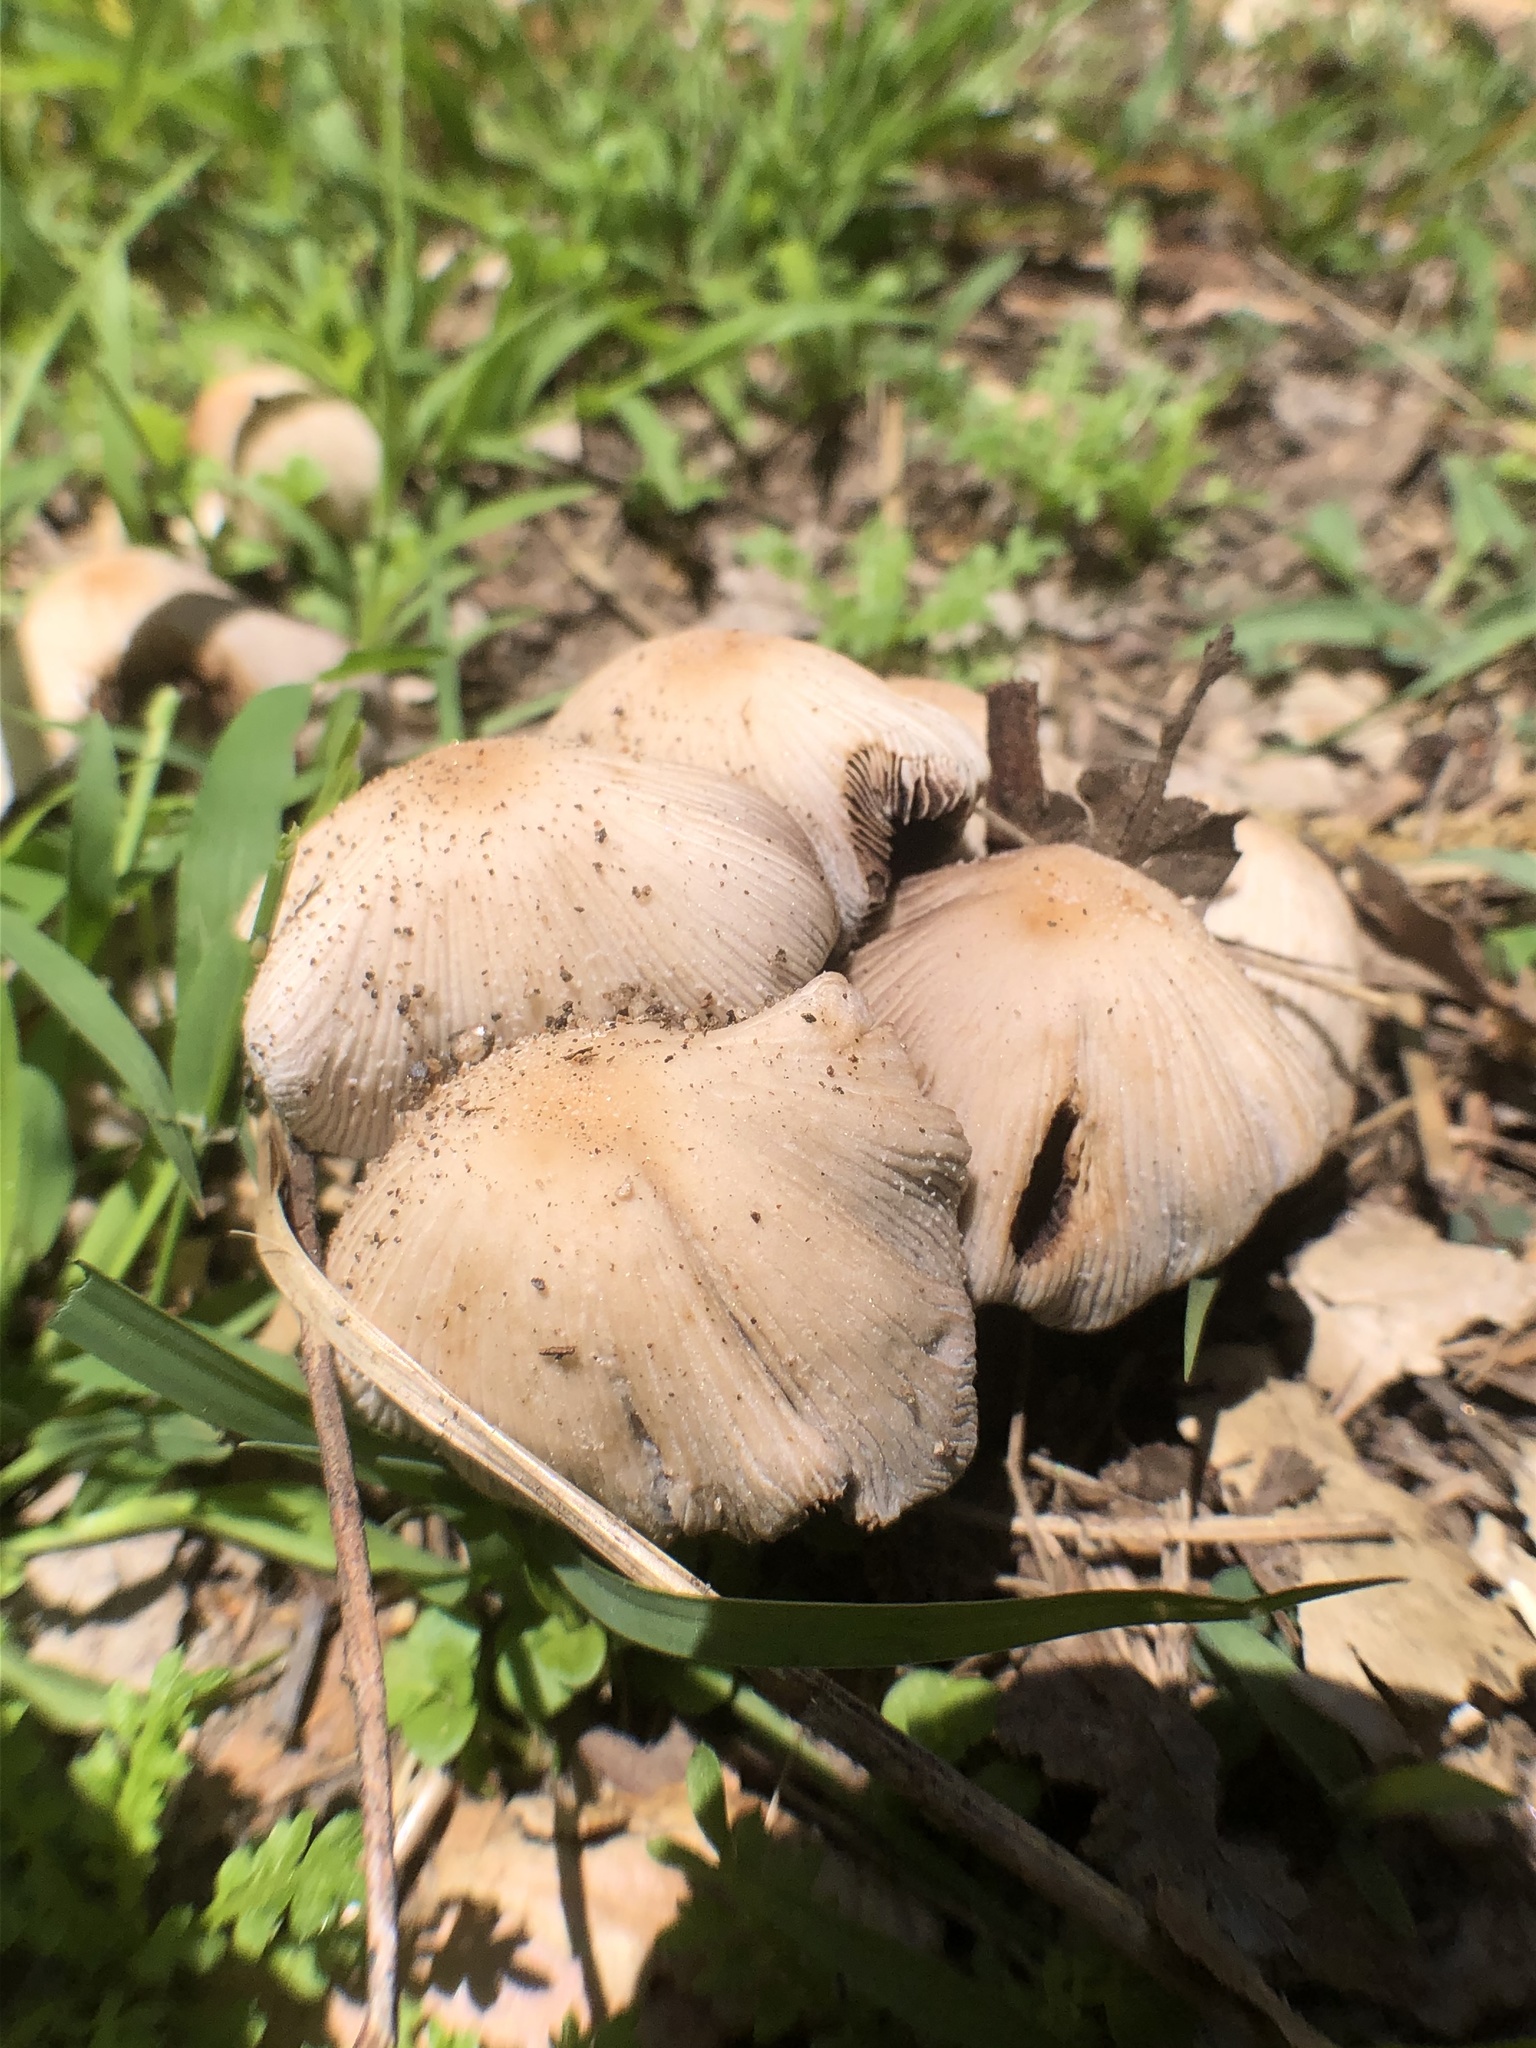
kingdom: Fungi
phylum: Basidiomycota
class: Agaricomycetes
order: Agaricales
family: Psathyrellaceae
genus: Coprinellus
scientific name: Coprinellus micaceus
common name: Glistening ink-cap
